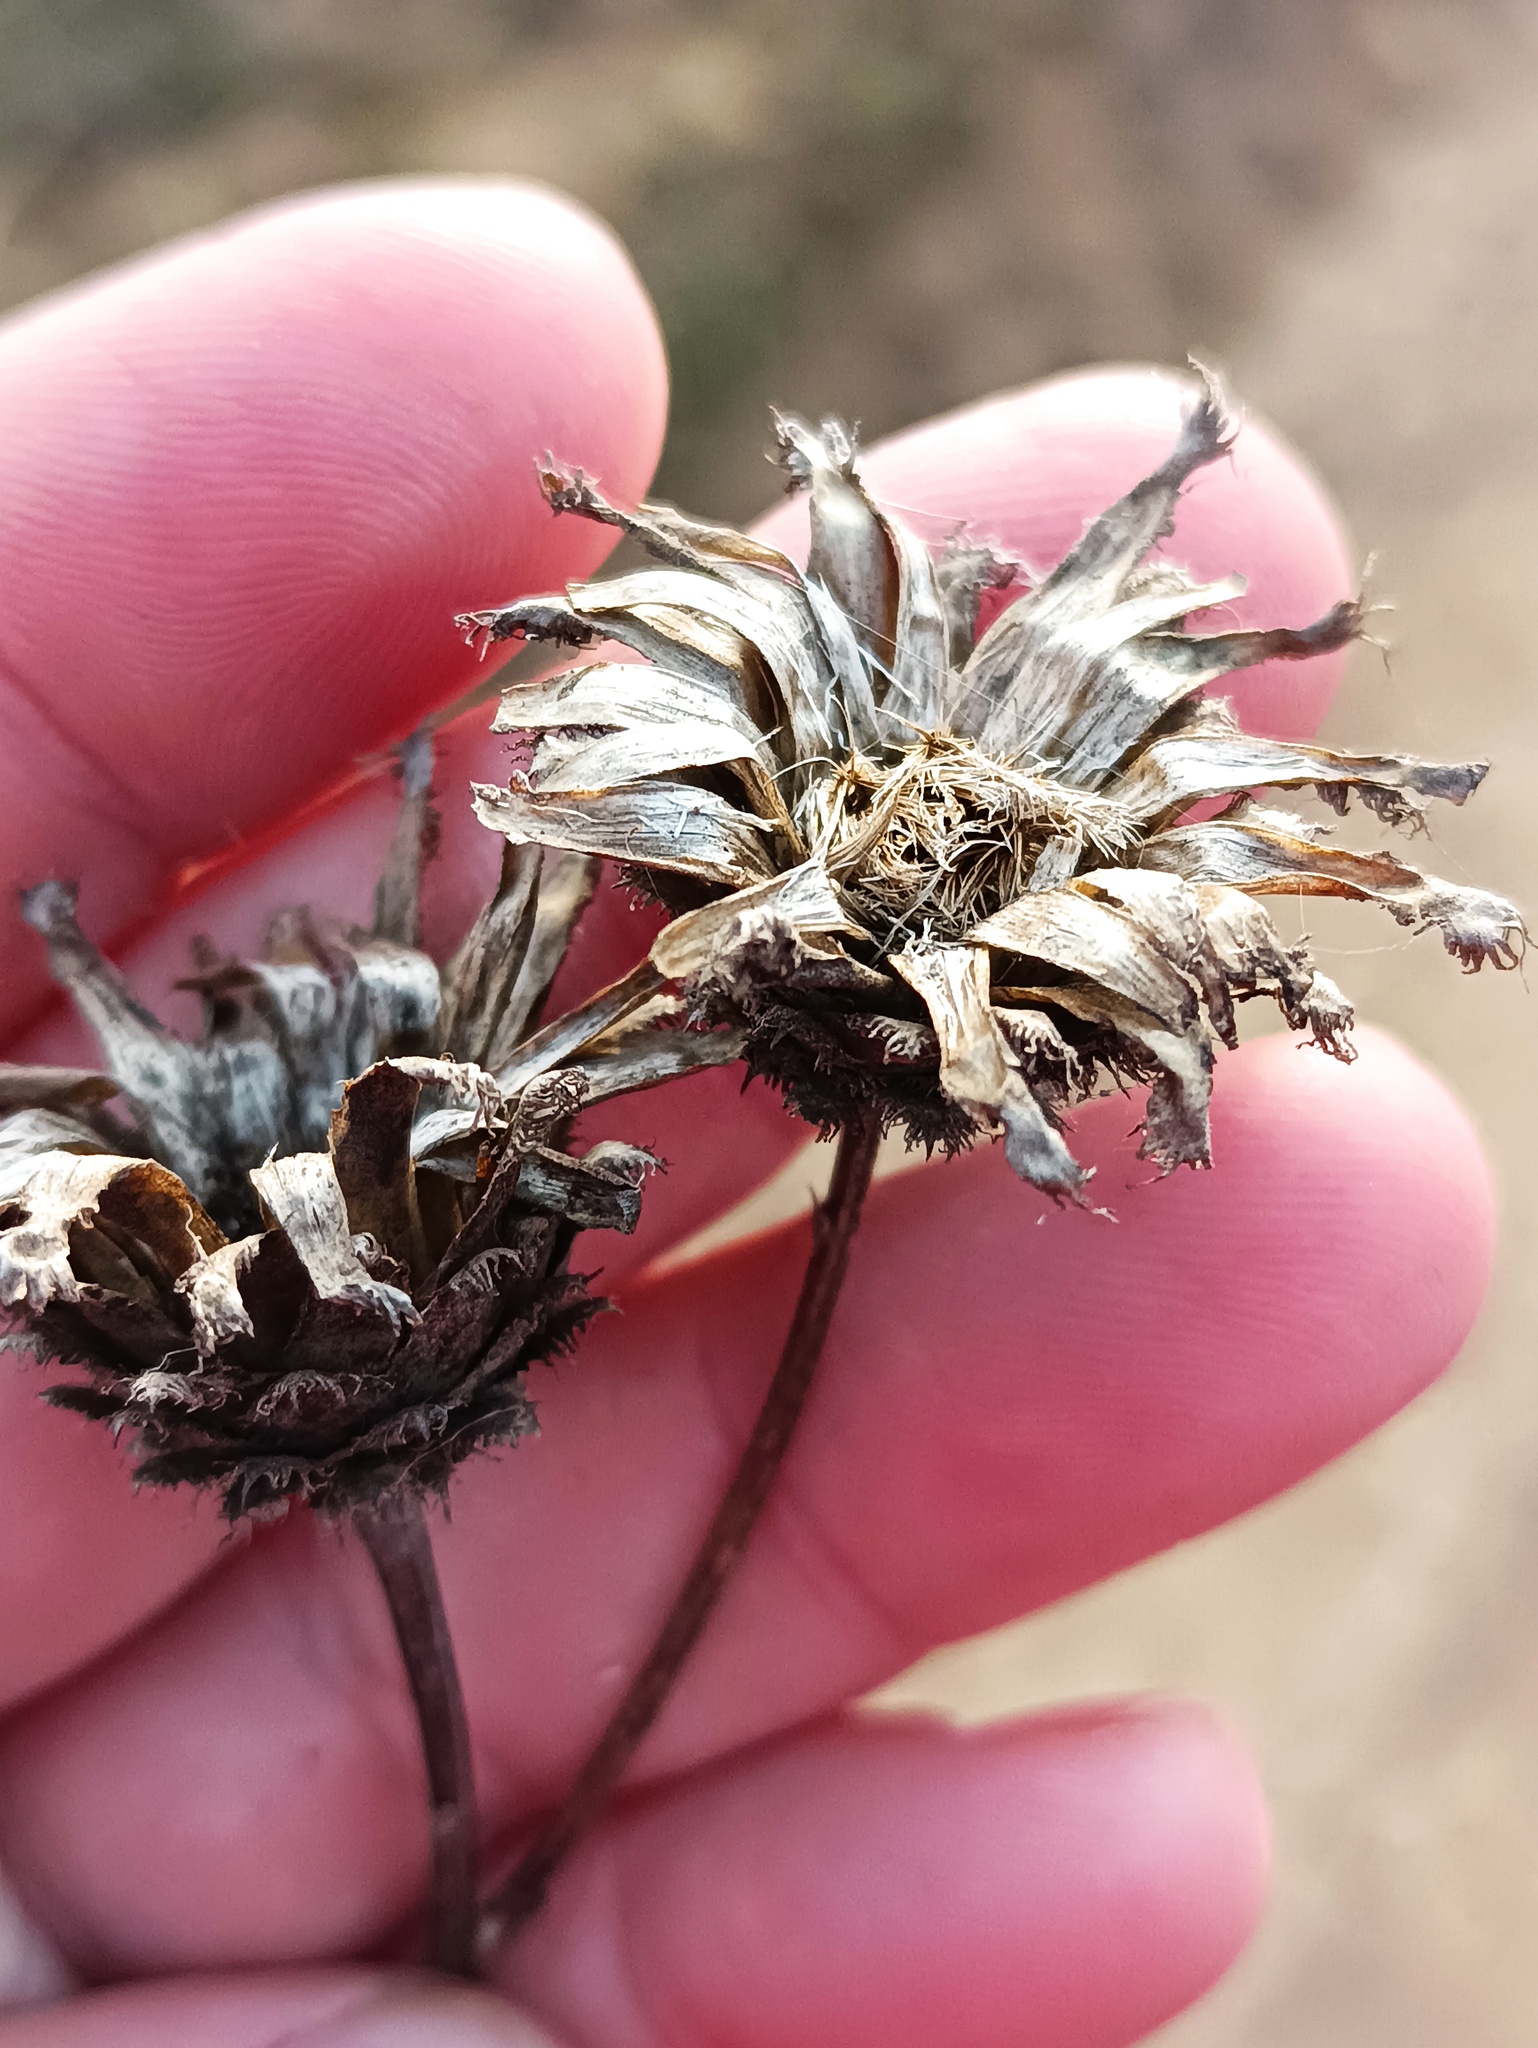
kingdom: Plantae
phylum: Tracheophyta
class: Magnoliopsida
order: Asterales
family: Asteraceae
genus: Centaurea
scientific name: Centaurea scabiosa
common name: Greater knapweed
